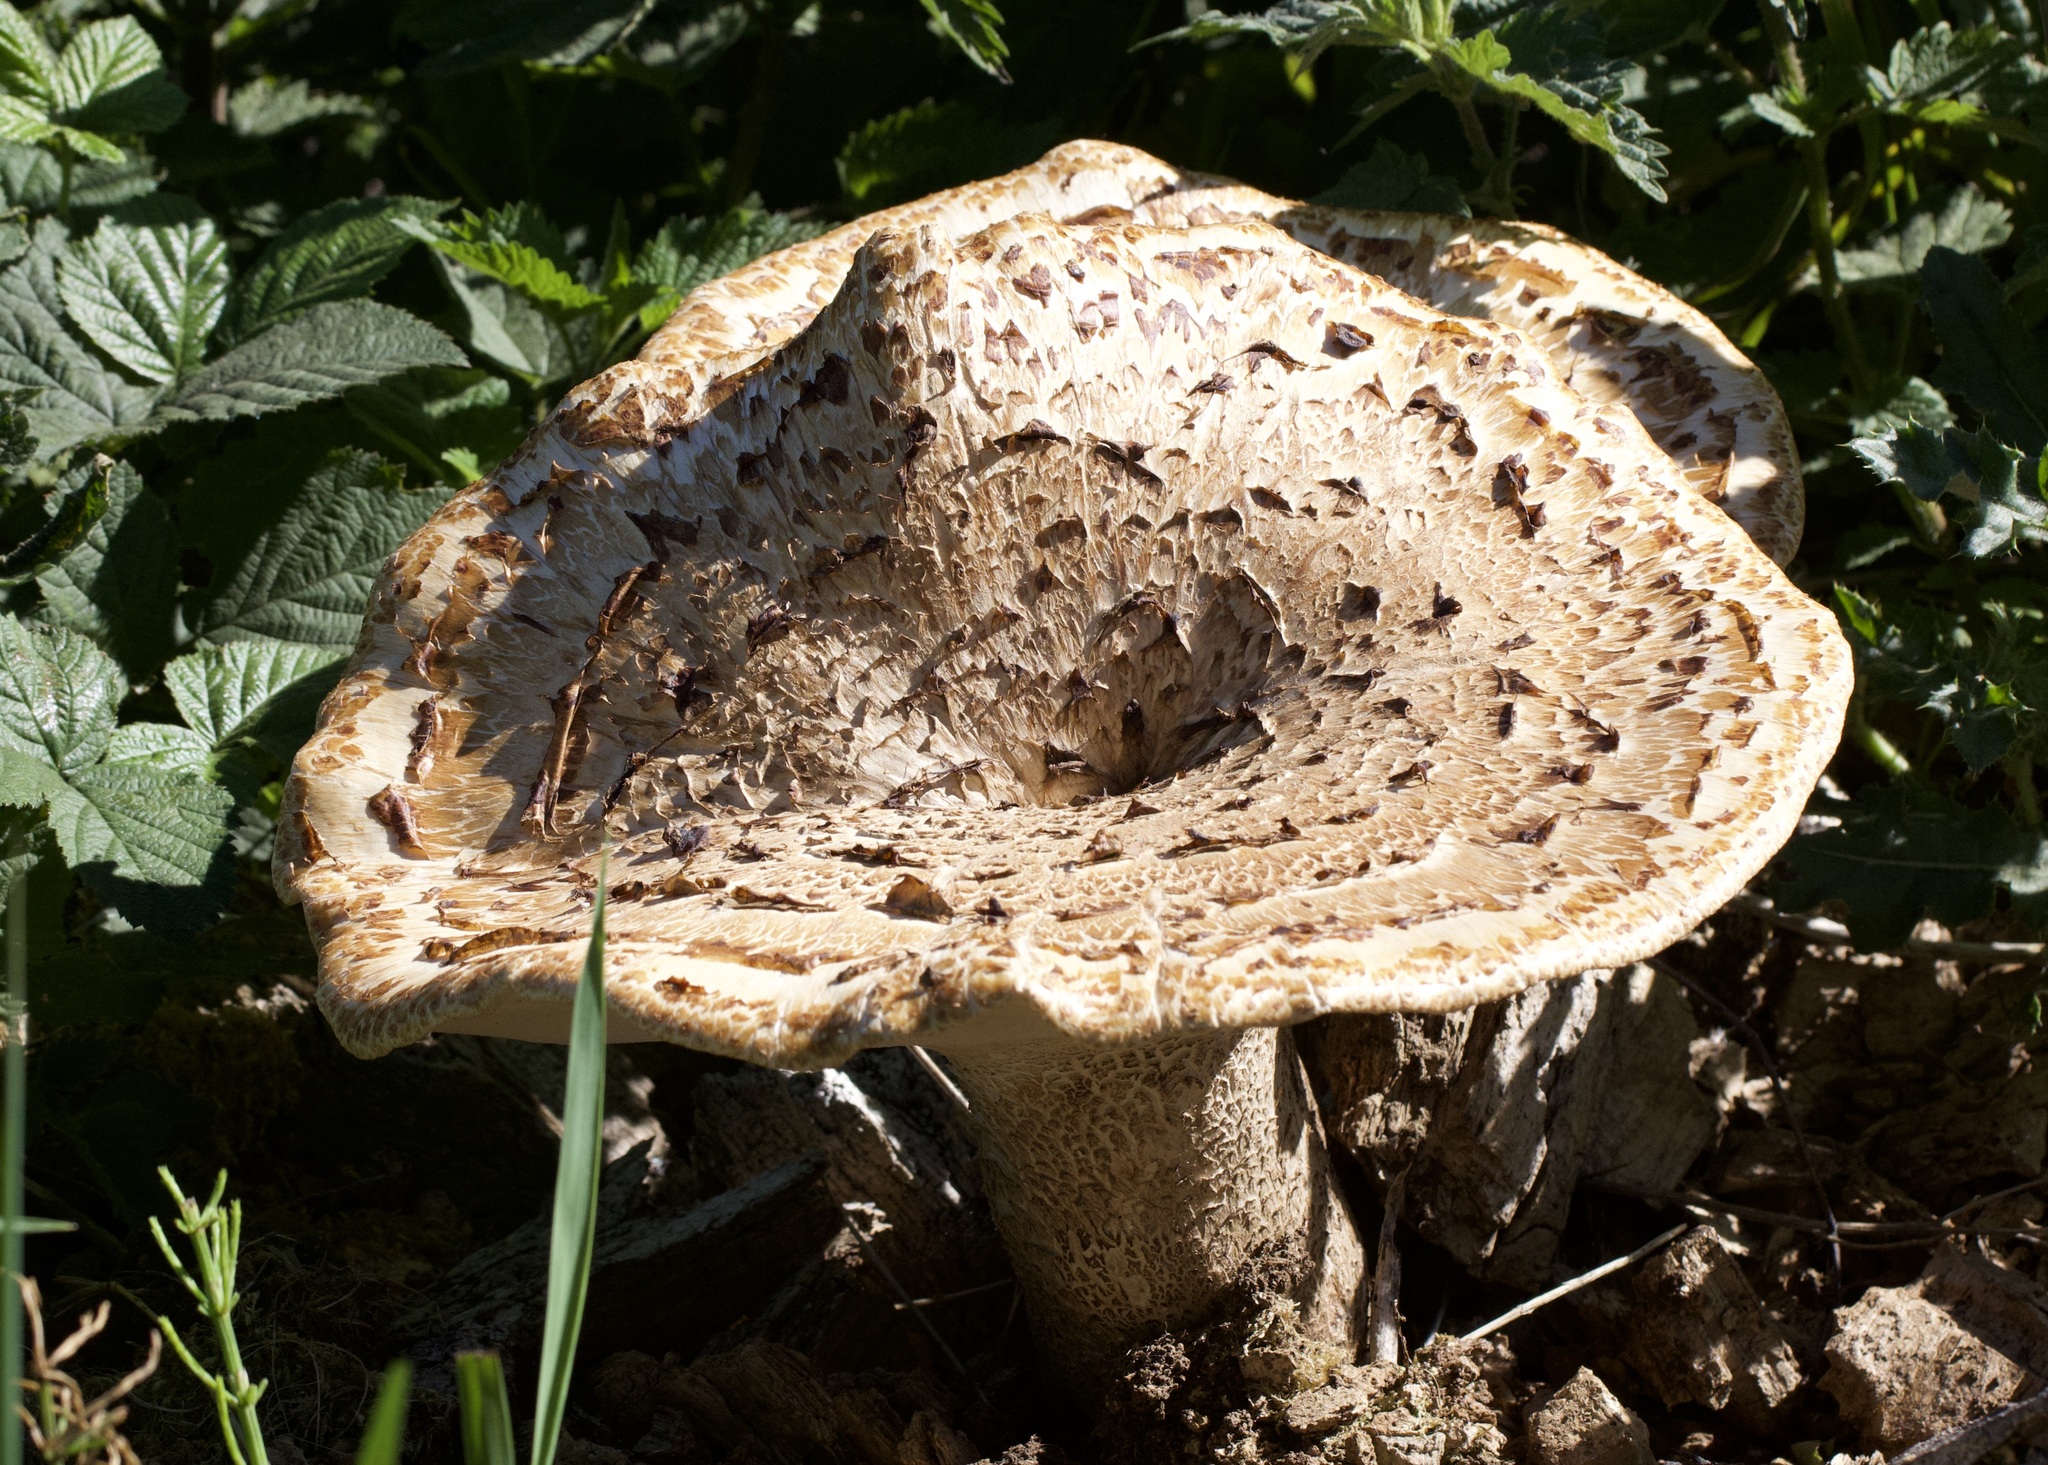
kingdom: Fungi
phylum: Basidiomycota
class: Agaricomycetes
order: Polyporales
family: Polyporaceae
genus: Cerioporus
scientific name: Cerioporus squamosus
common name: Dryad's saddle
